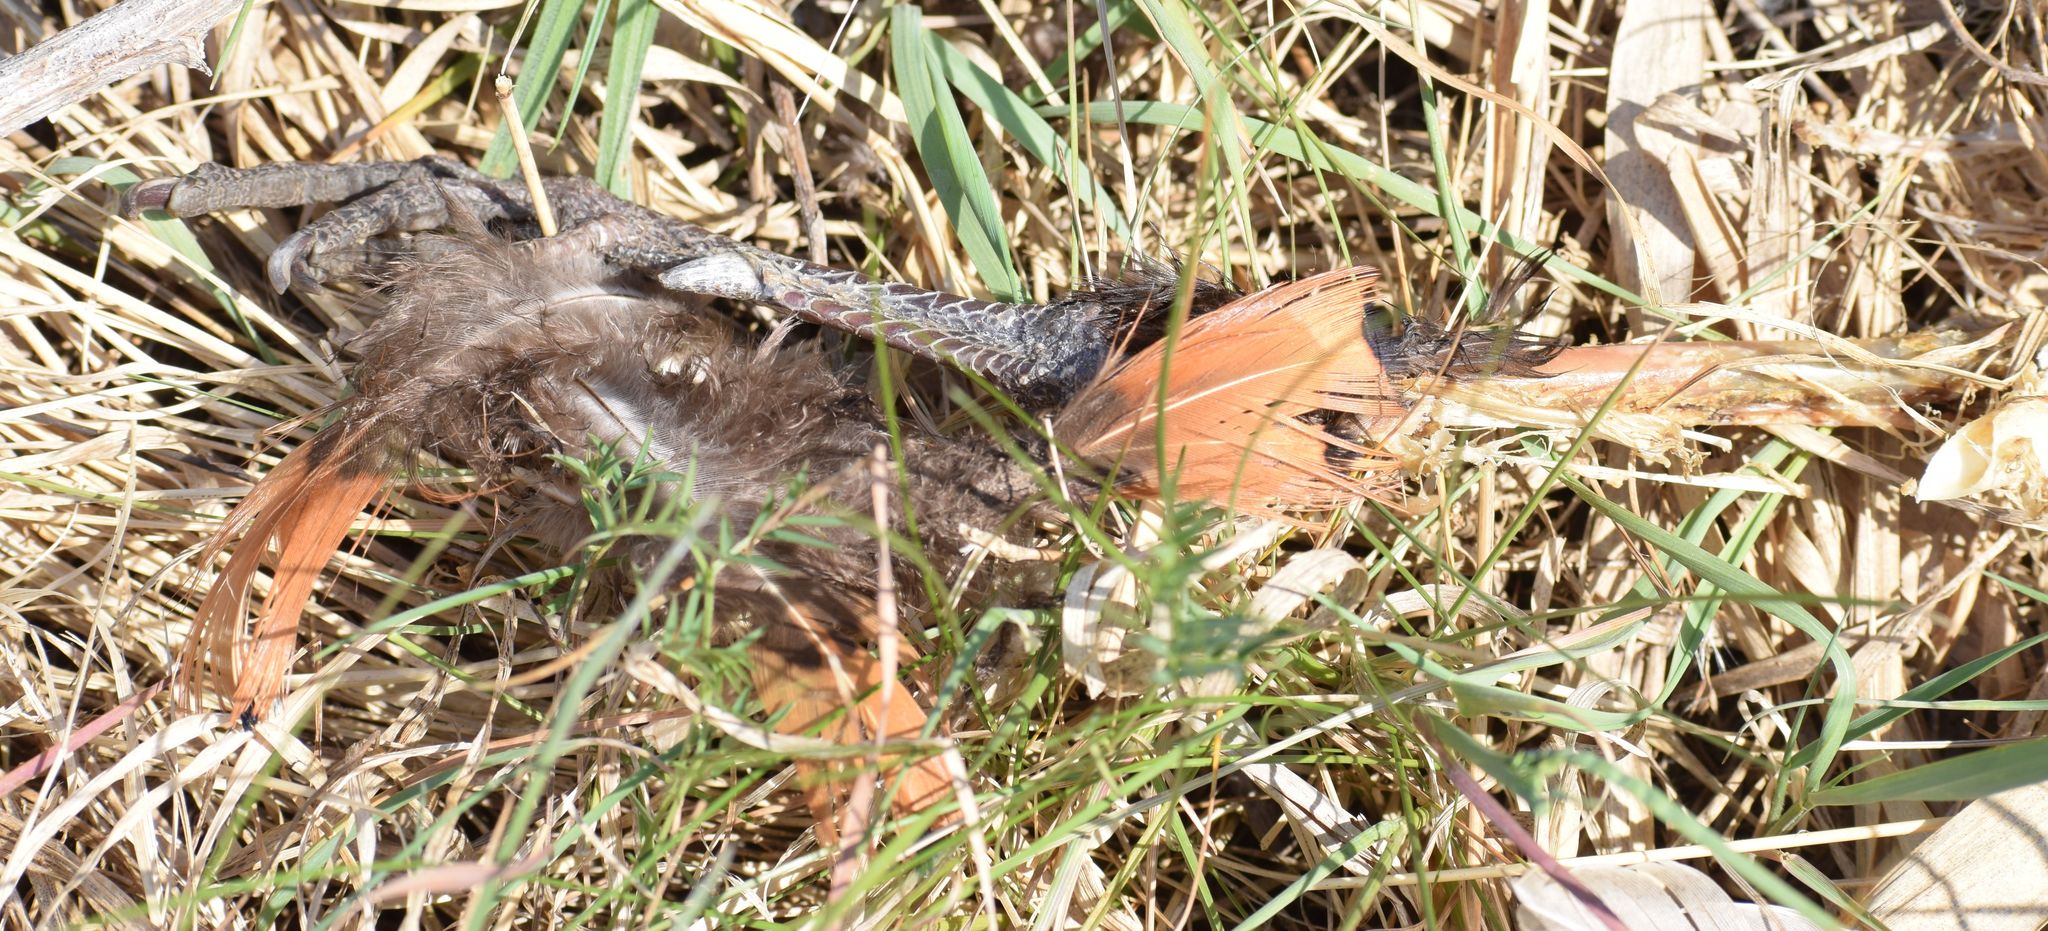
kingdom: Animalia
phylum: Chordata
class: Aves
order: Galliformes
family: Phasianidae
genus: Phasianus
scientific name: Phasianus colchicus
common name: Common pheasant
